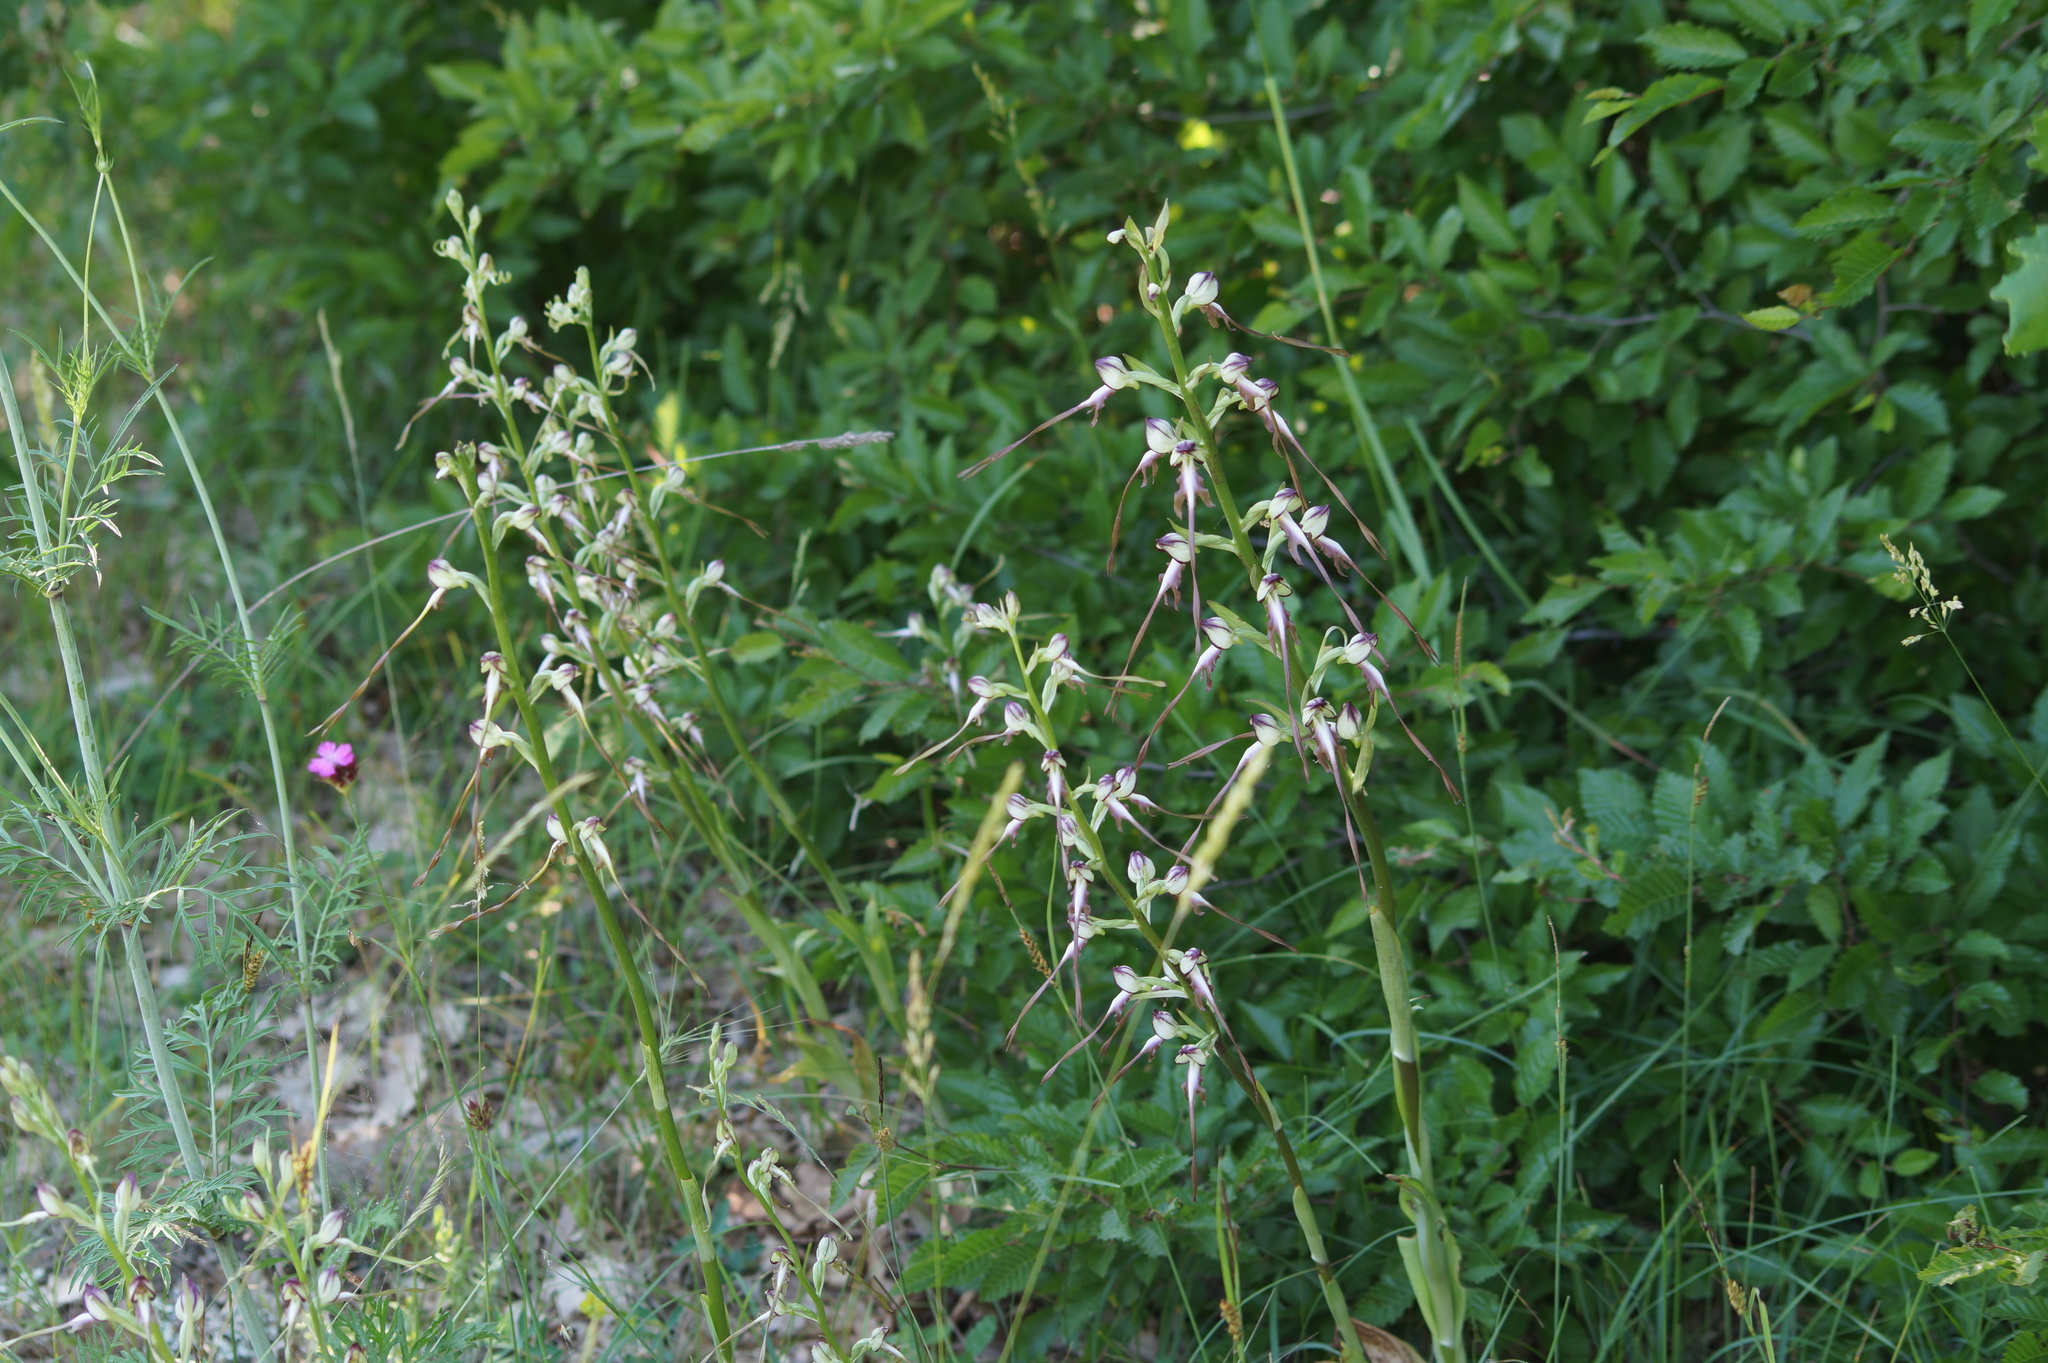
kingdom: Plantae
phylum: Tracheophyta
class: Liliopsida
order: Asparagales
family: Orchidaceae
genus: Himantoglossum
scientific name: Himantoglossum caprinum
